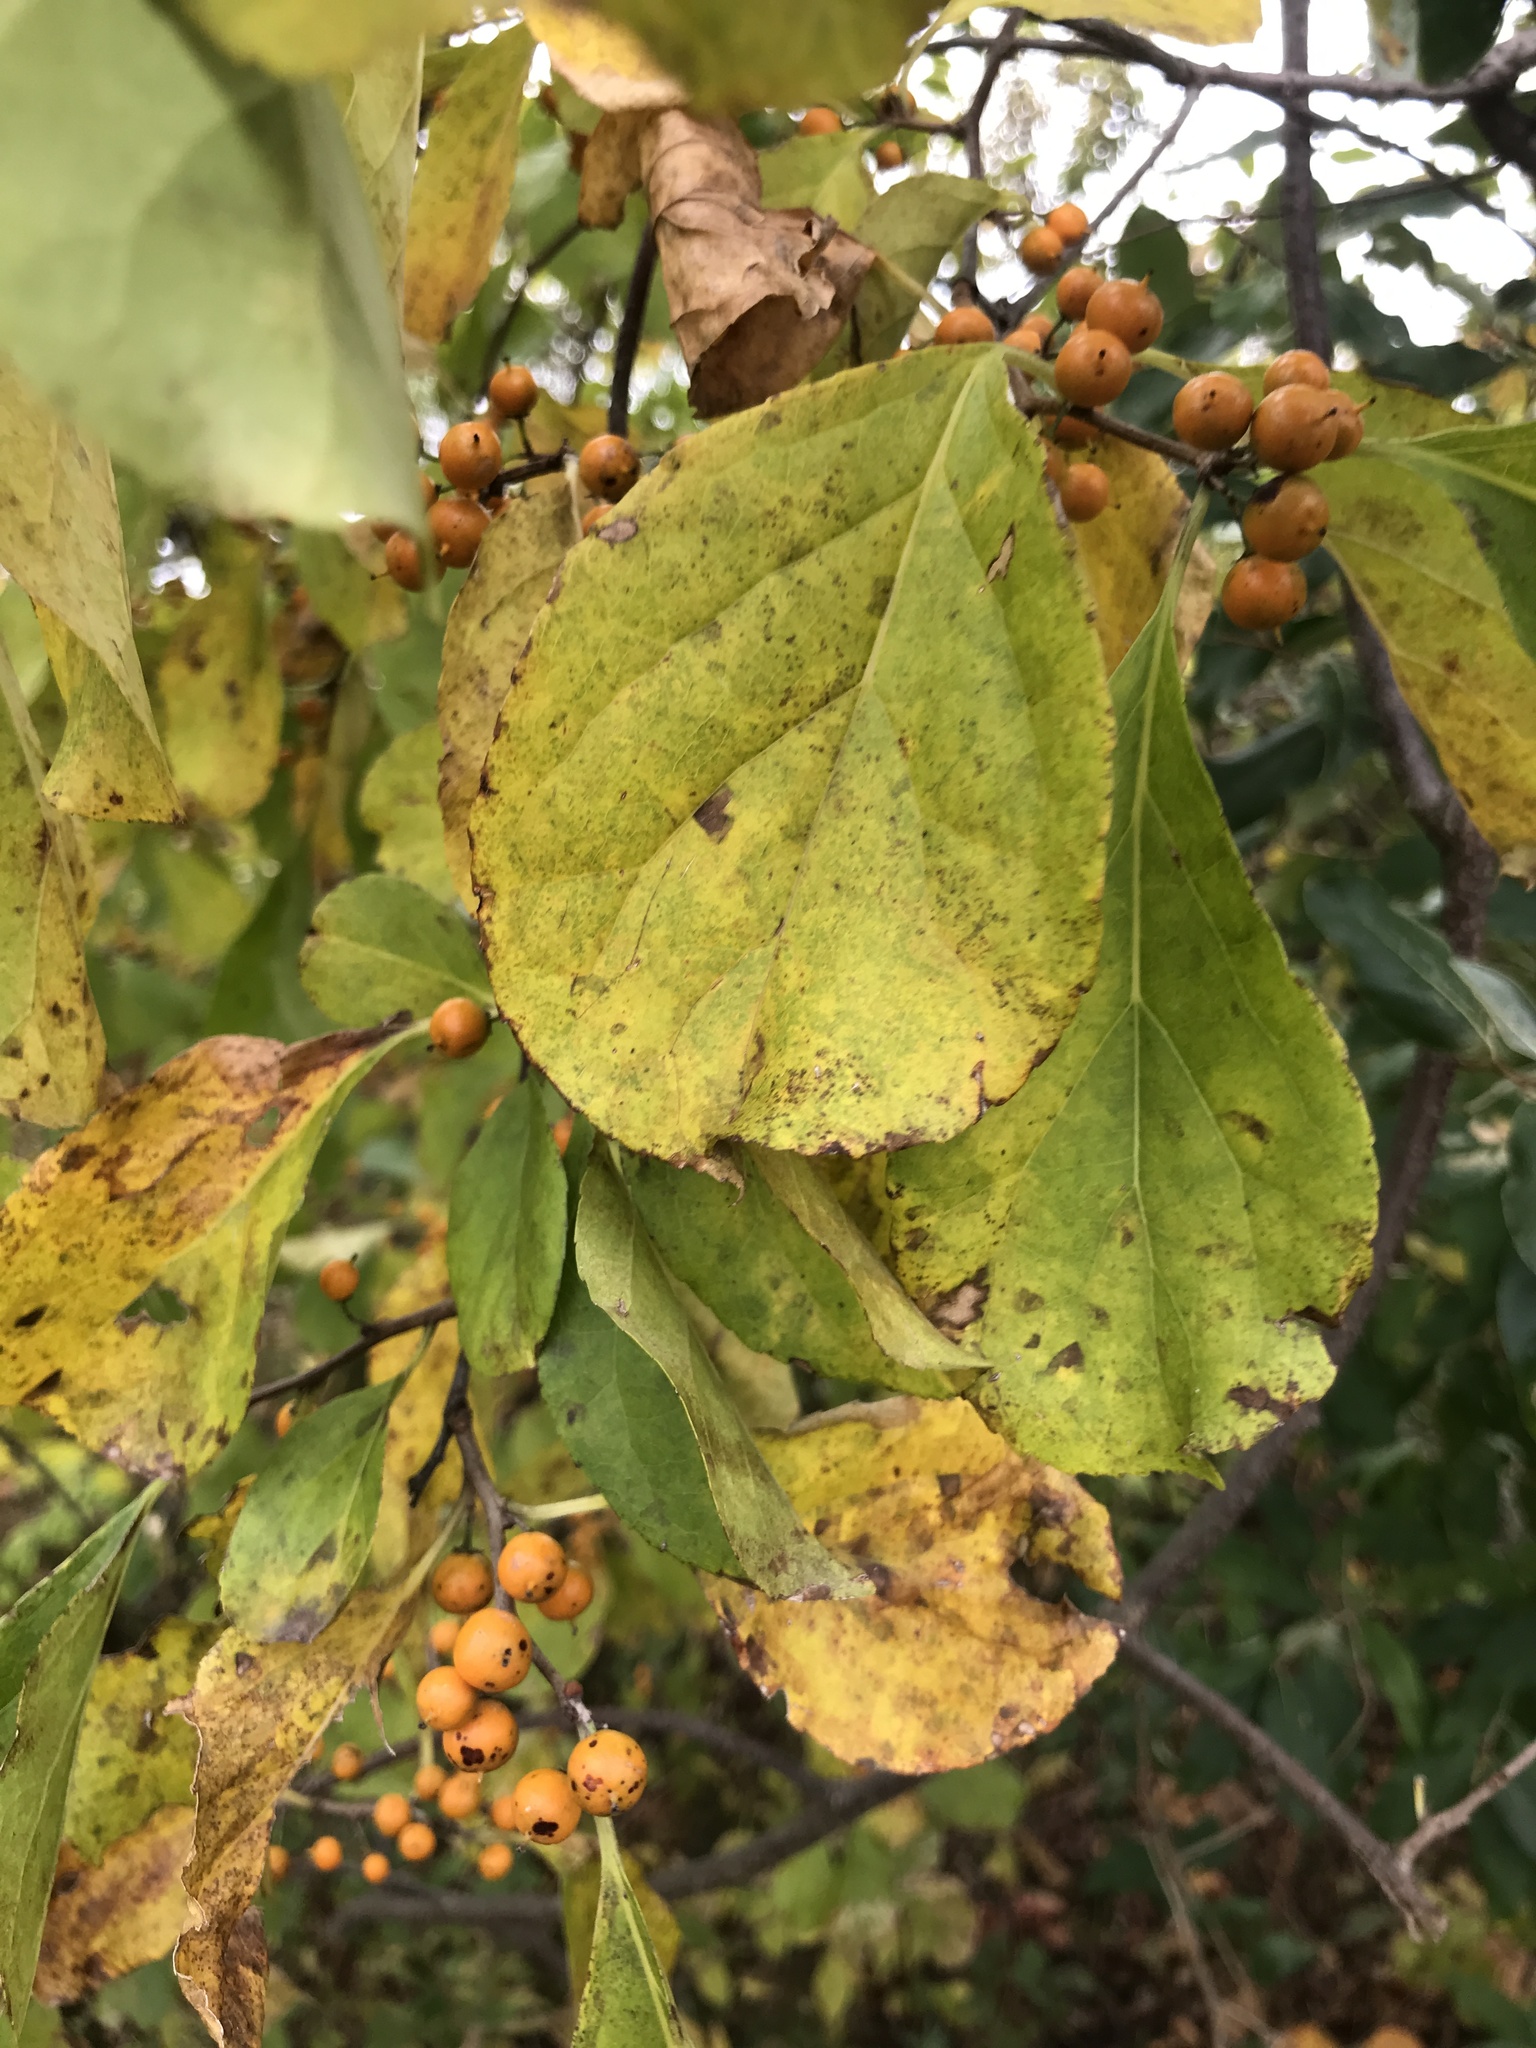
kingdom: Plantae
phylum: Tracheophyta
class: Magnoliopsida
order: Celastrales
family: Celastraceae
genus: Celastrus
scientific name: Celastrus orbiculatus
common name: Oriental bittersweet
